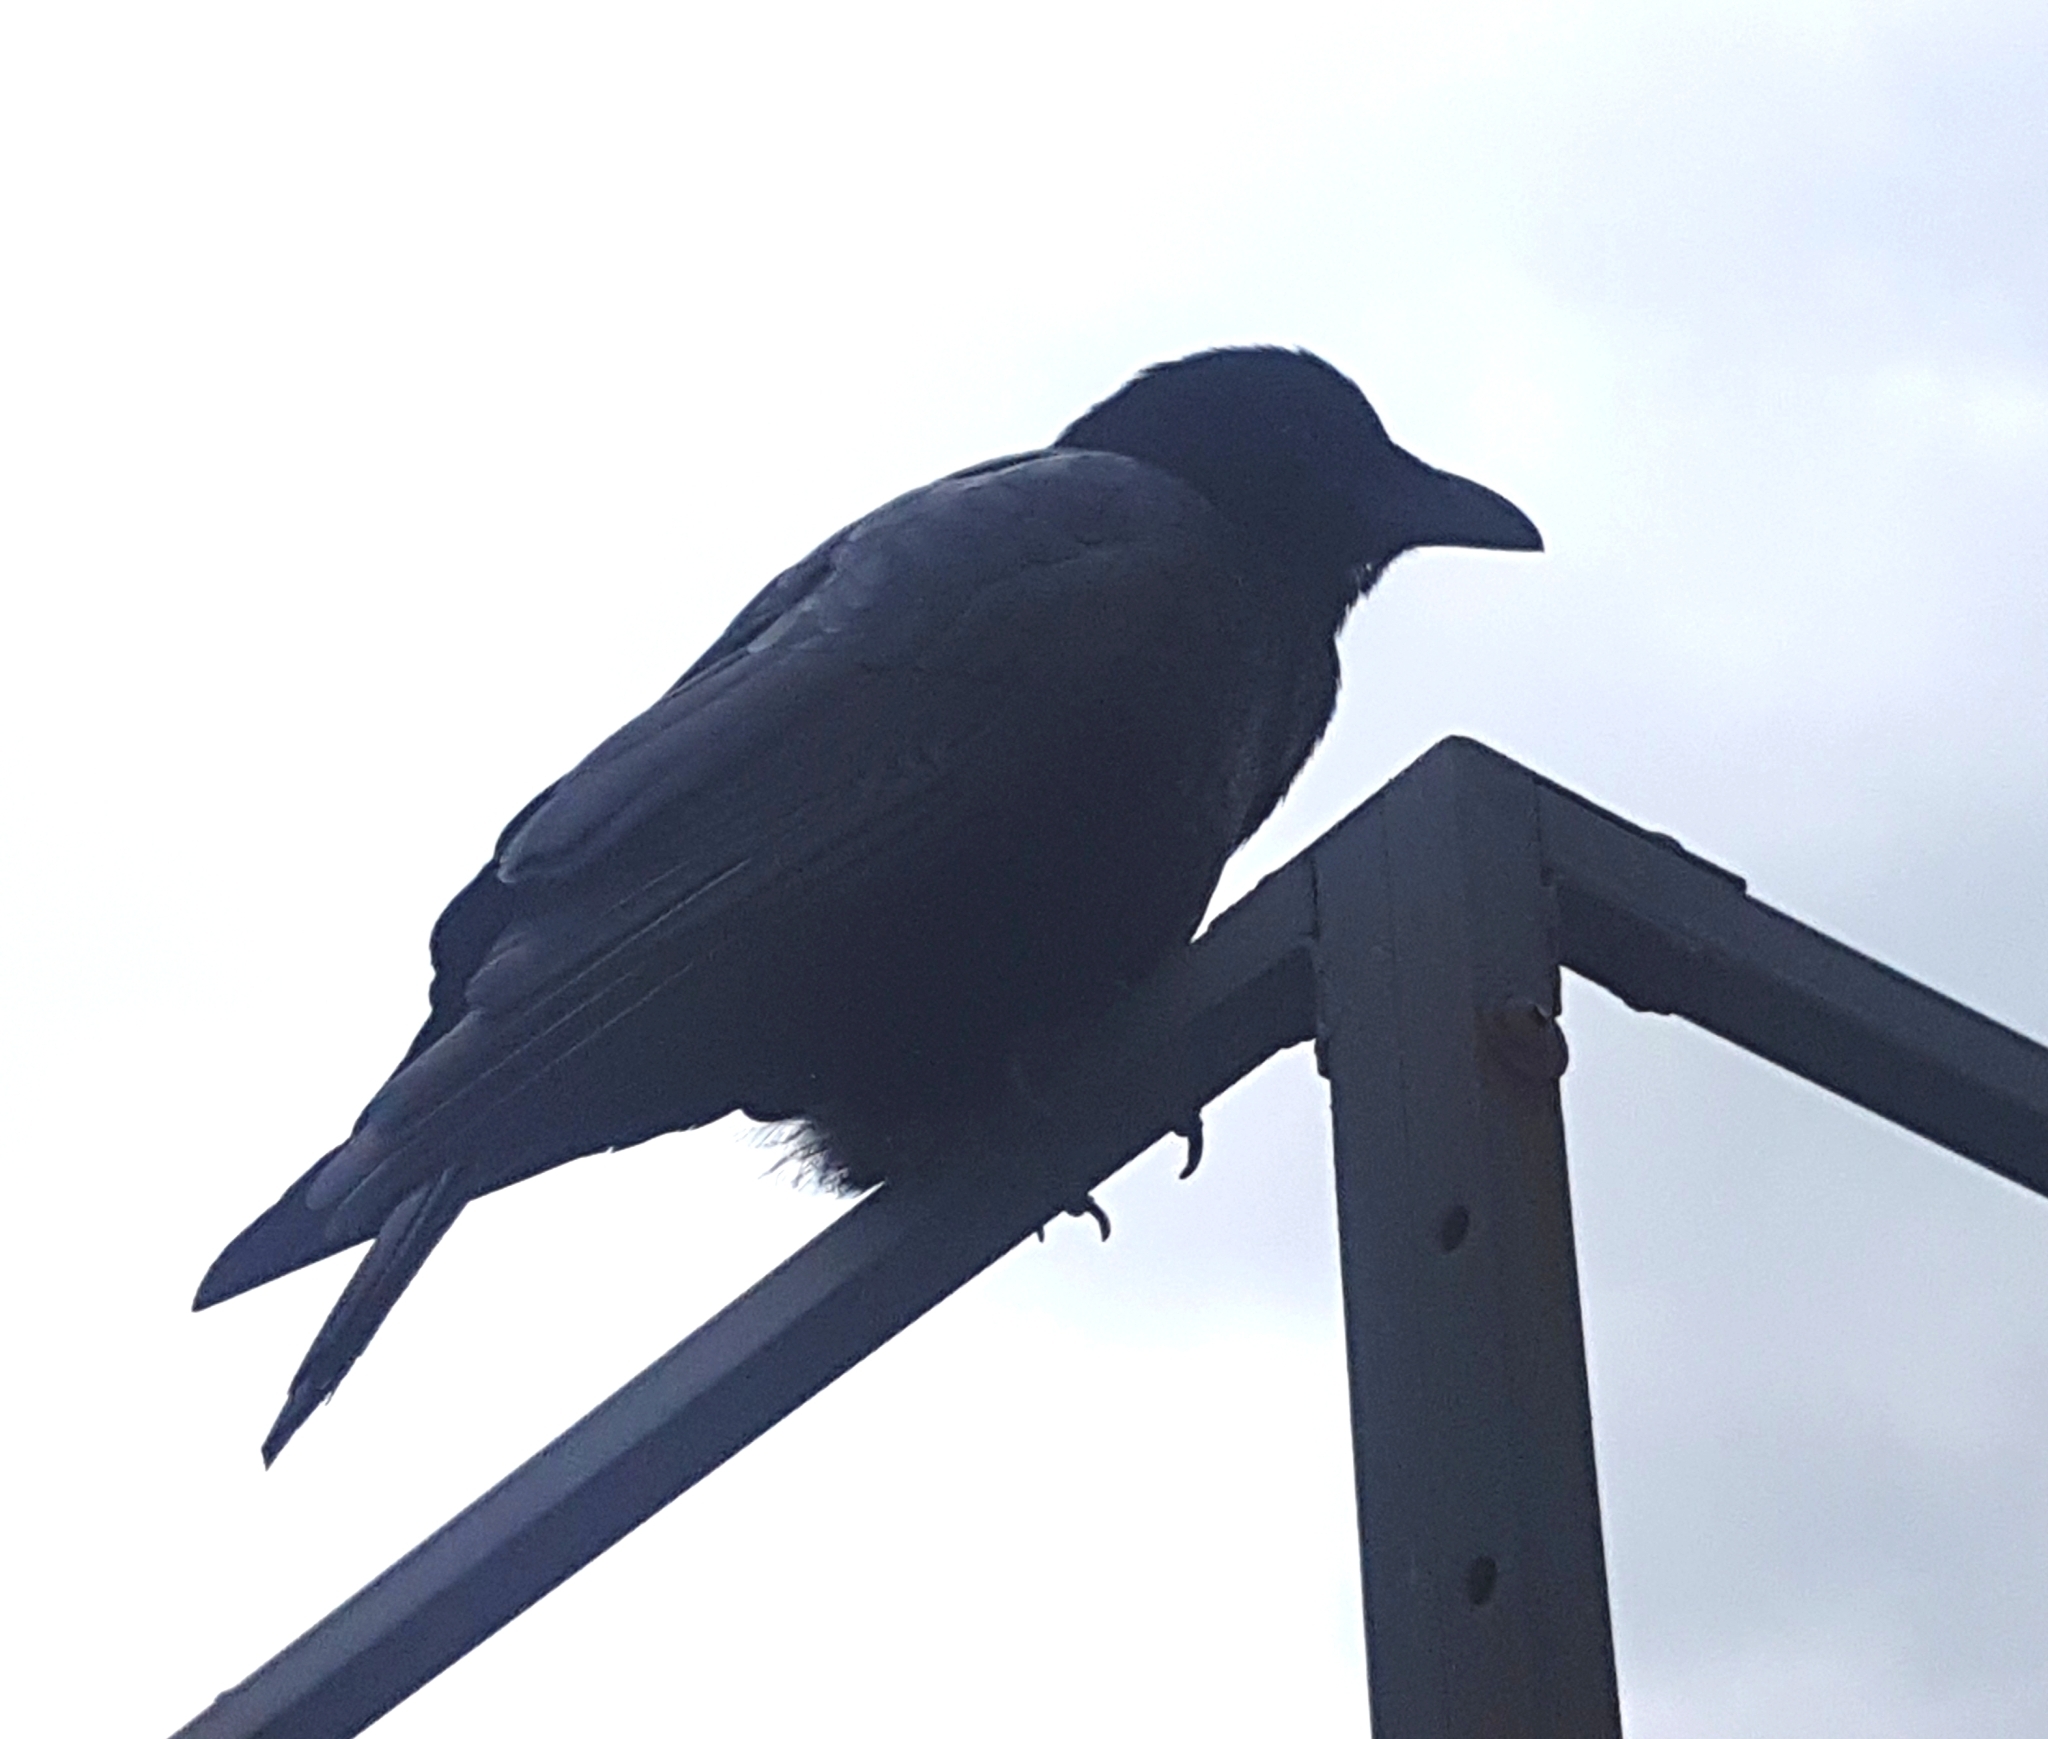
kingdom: Animalia
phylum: Chordata
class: Aves
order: Passeriformes
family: Corvidae
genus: Corvus
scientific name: Corvus brachyrhynchos
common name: American crow
